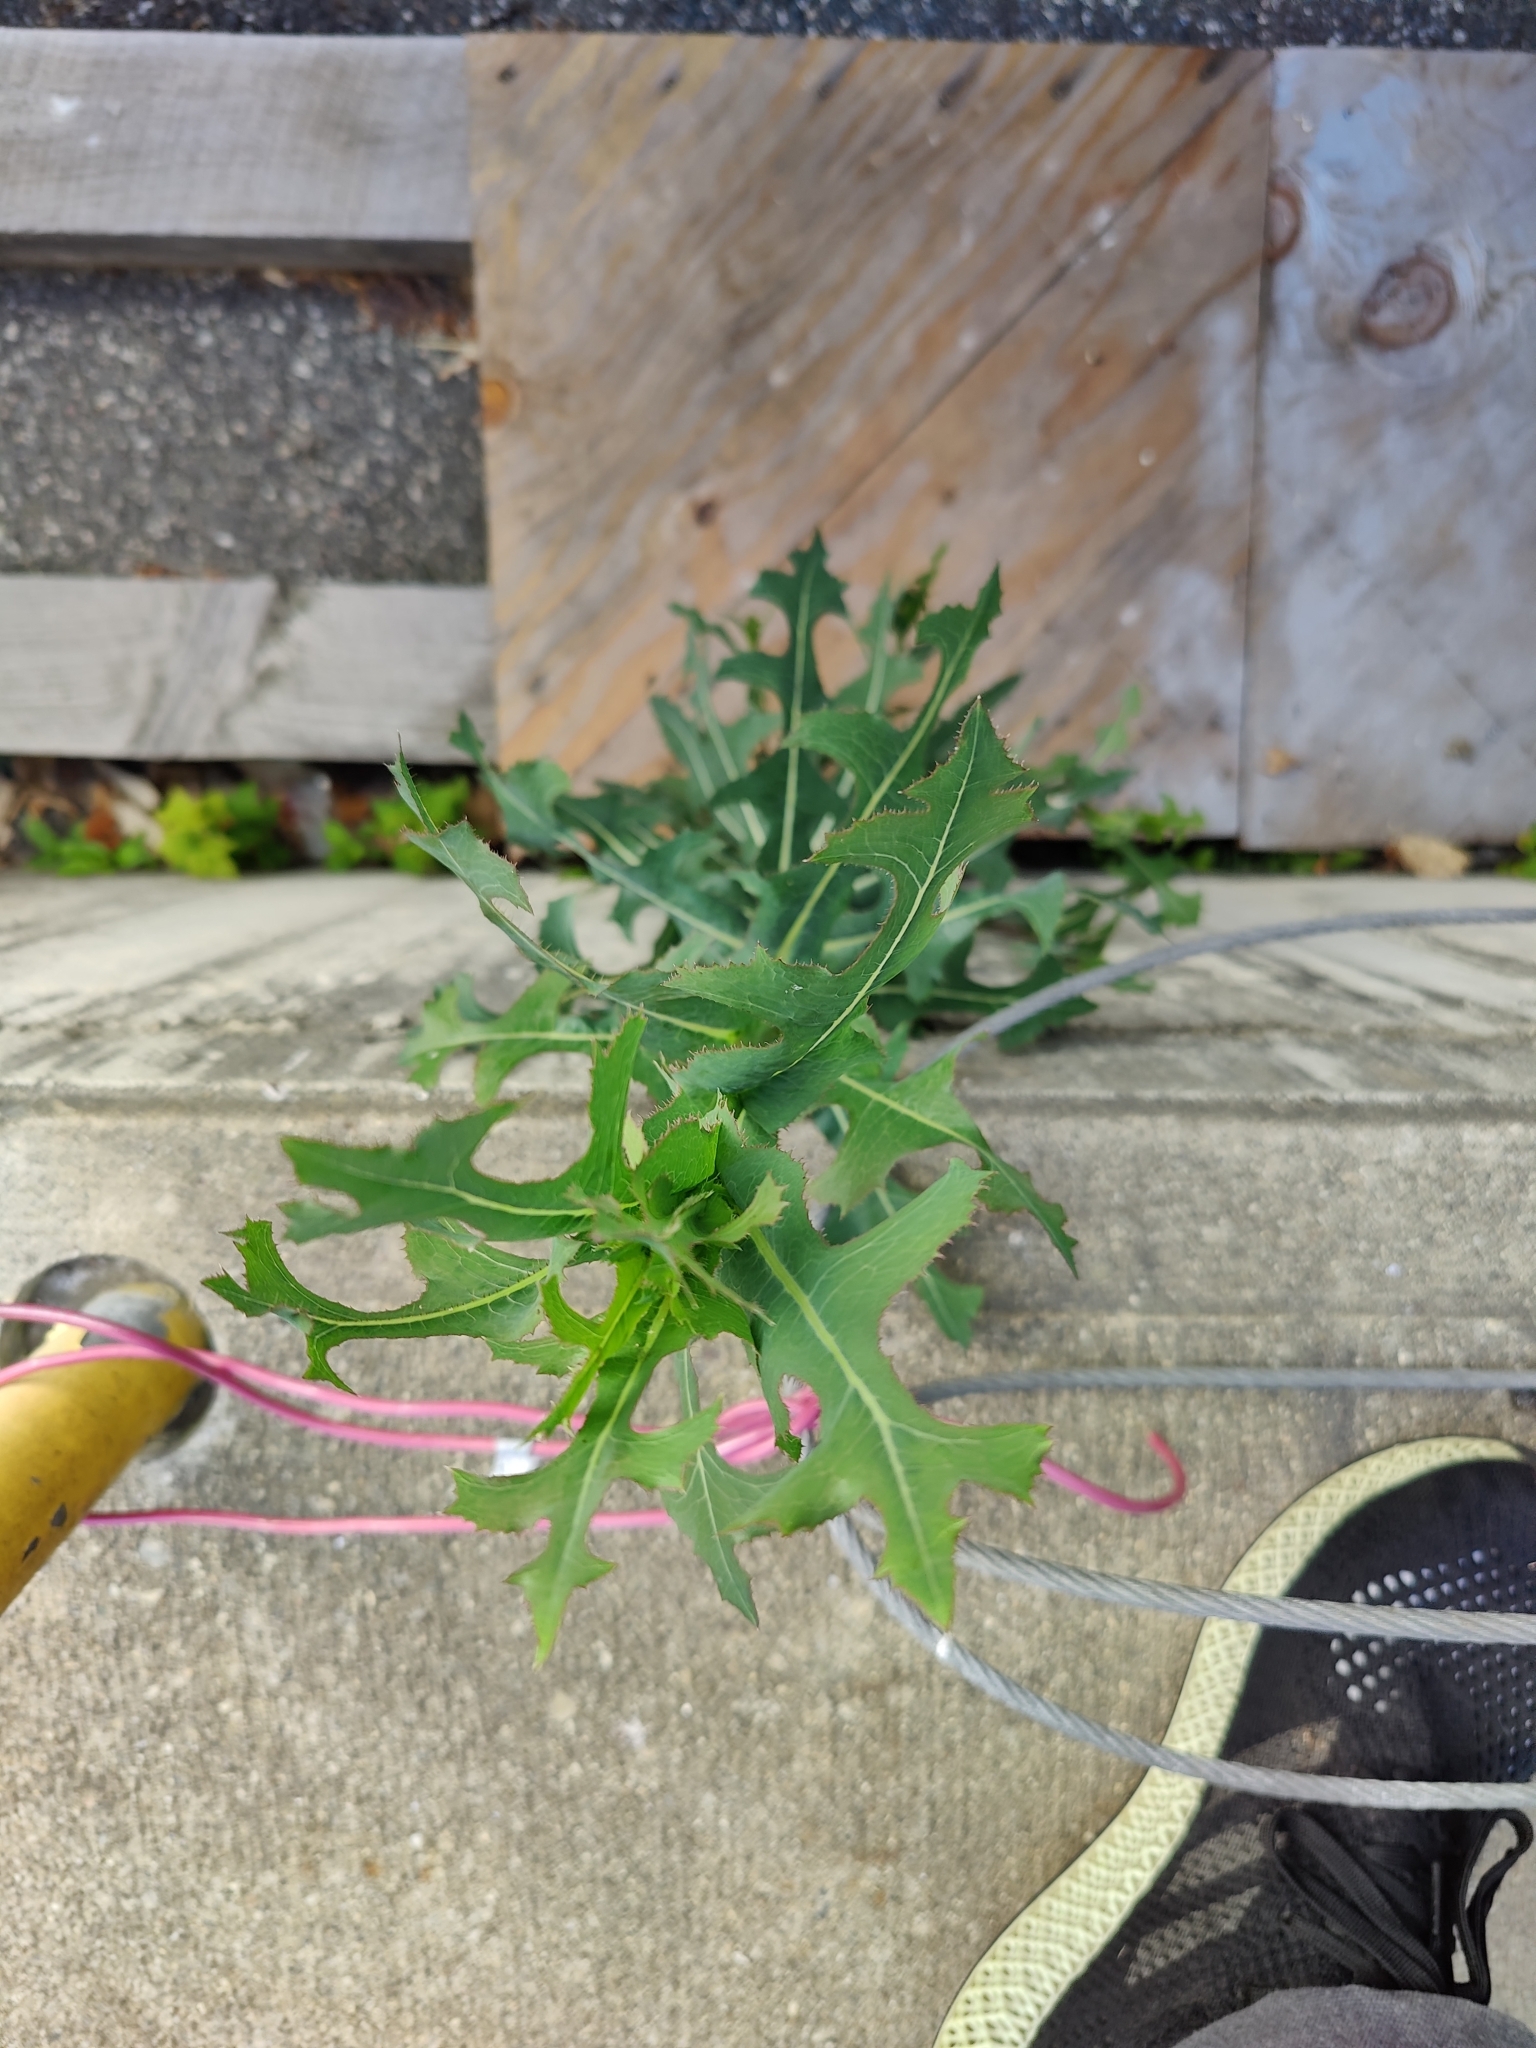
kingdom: Plantae
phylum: Tracheophyta
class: Magnoliopsida
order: Asterales
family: Asteraceae
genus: Lactuca
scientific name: Lactuca serriola
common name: Prickly lettuce
